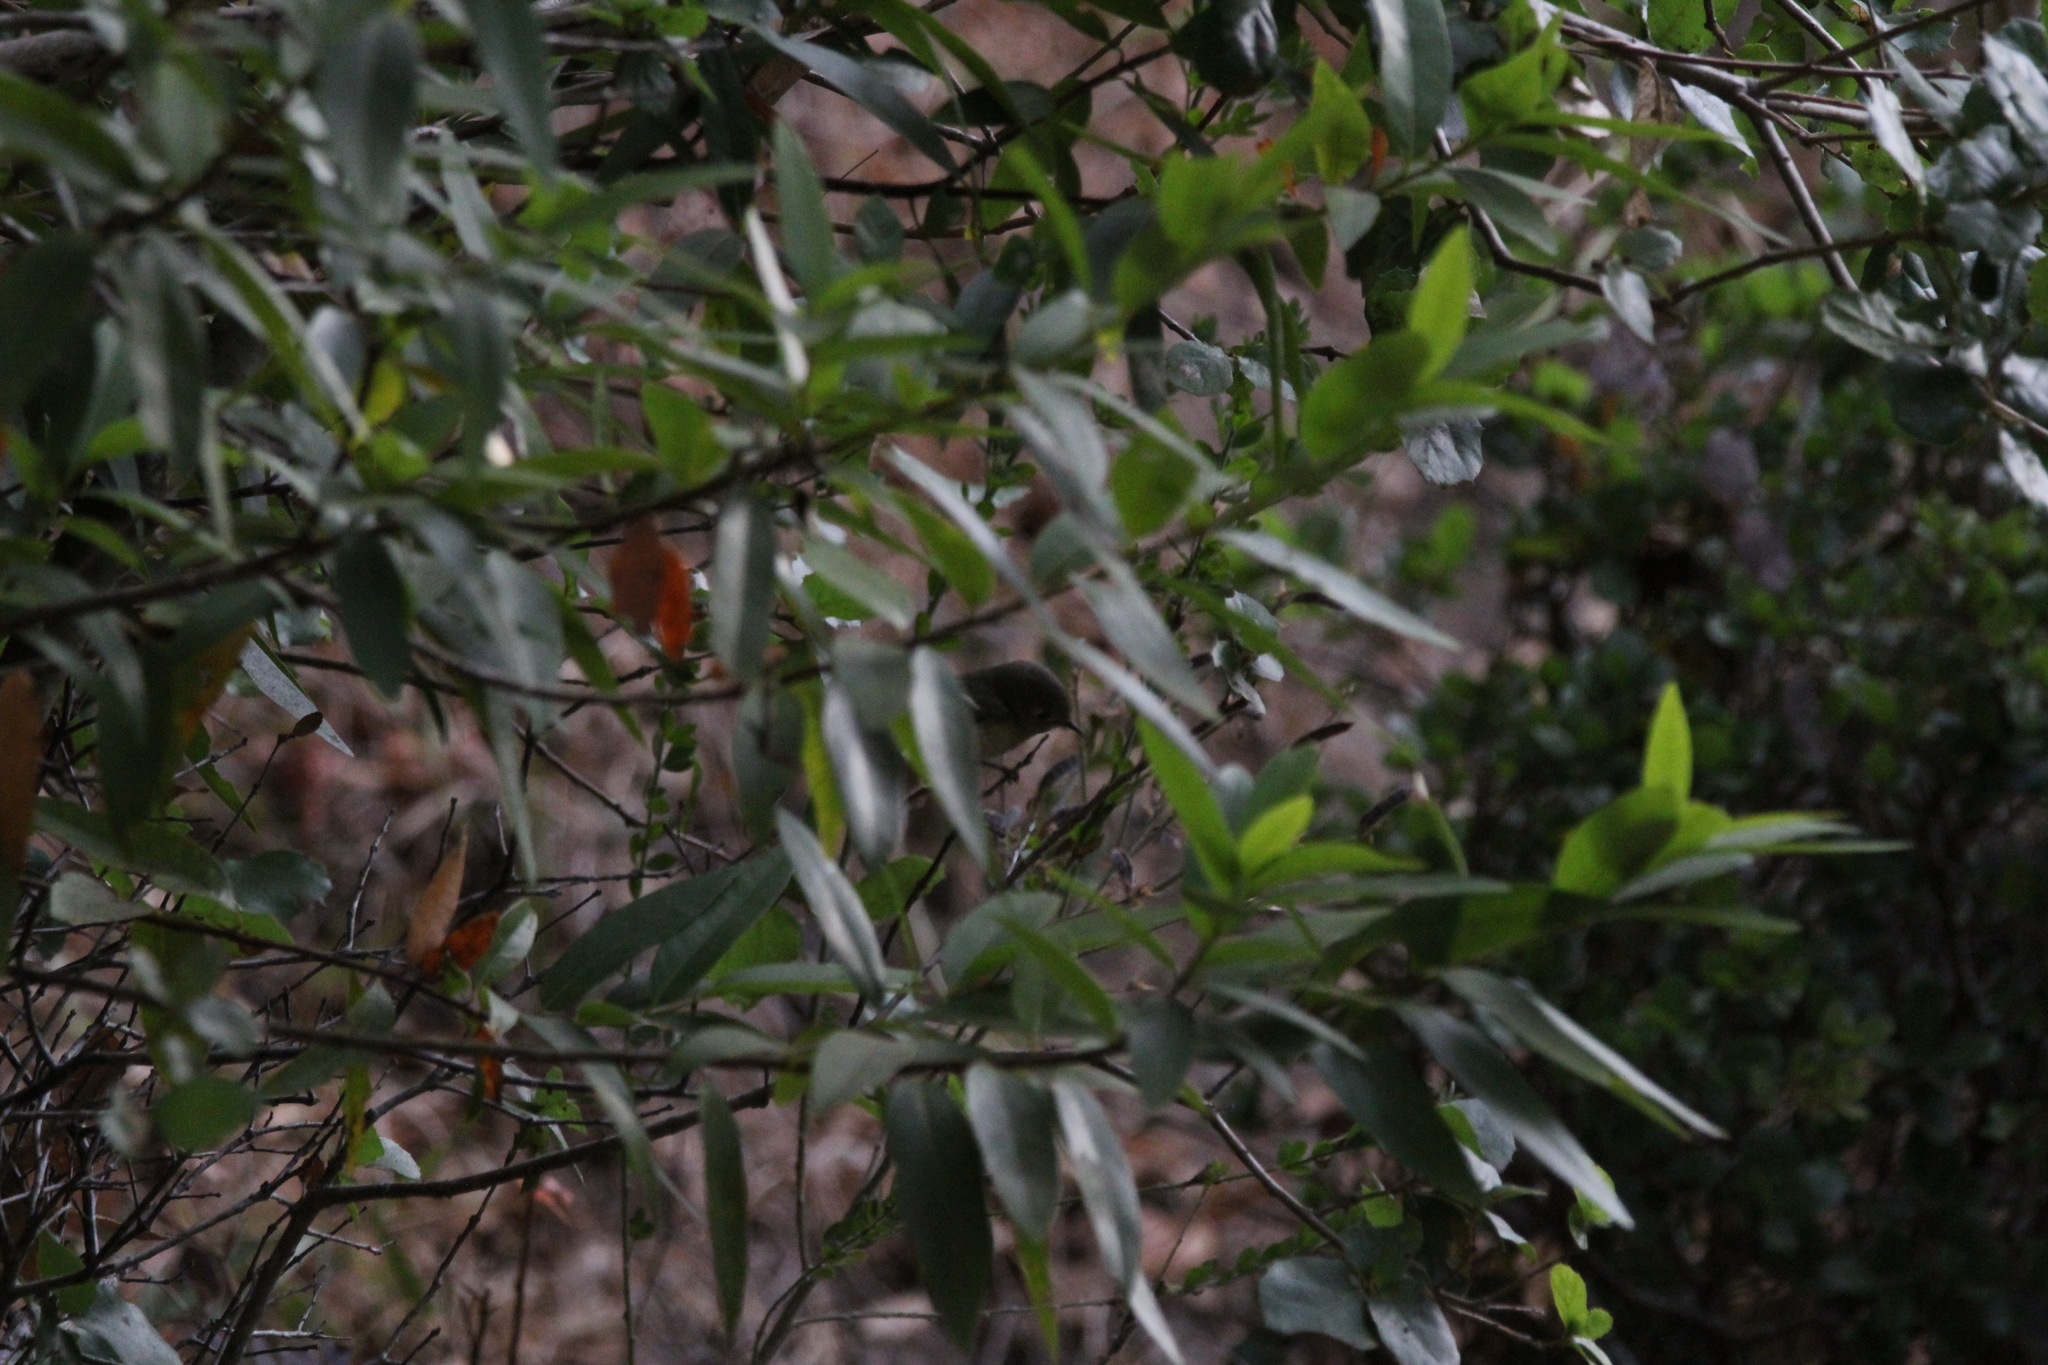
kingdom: Animalia
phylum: Chordata
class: Aves
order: Passeriformes
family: Regulidae
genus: Regulus
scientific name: Regulus calendula
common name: Ruby-crowned kinglet
